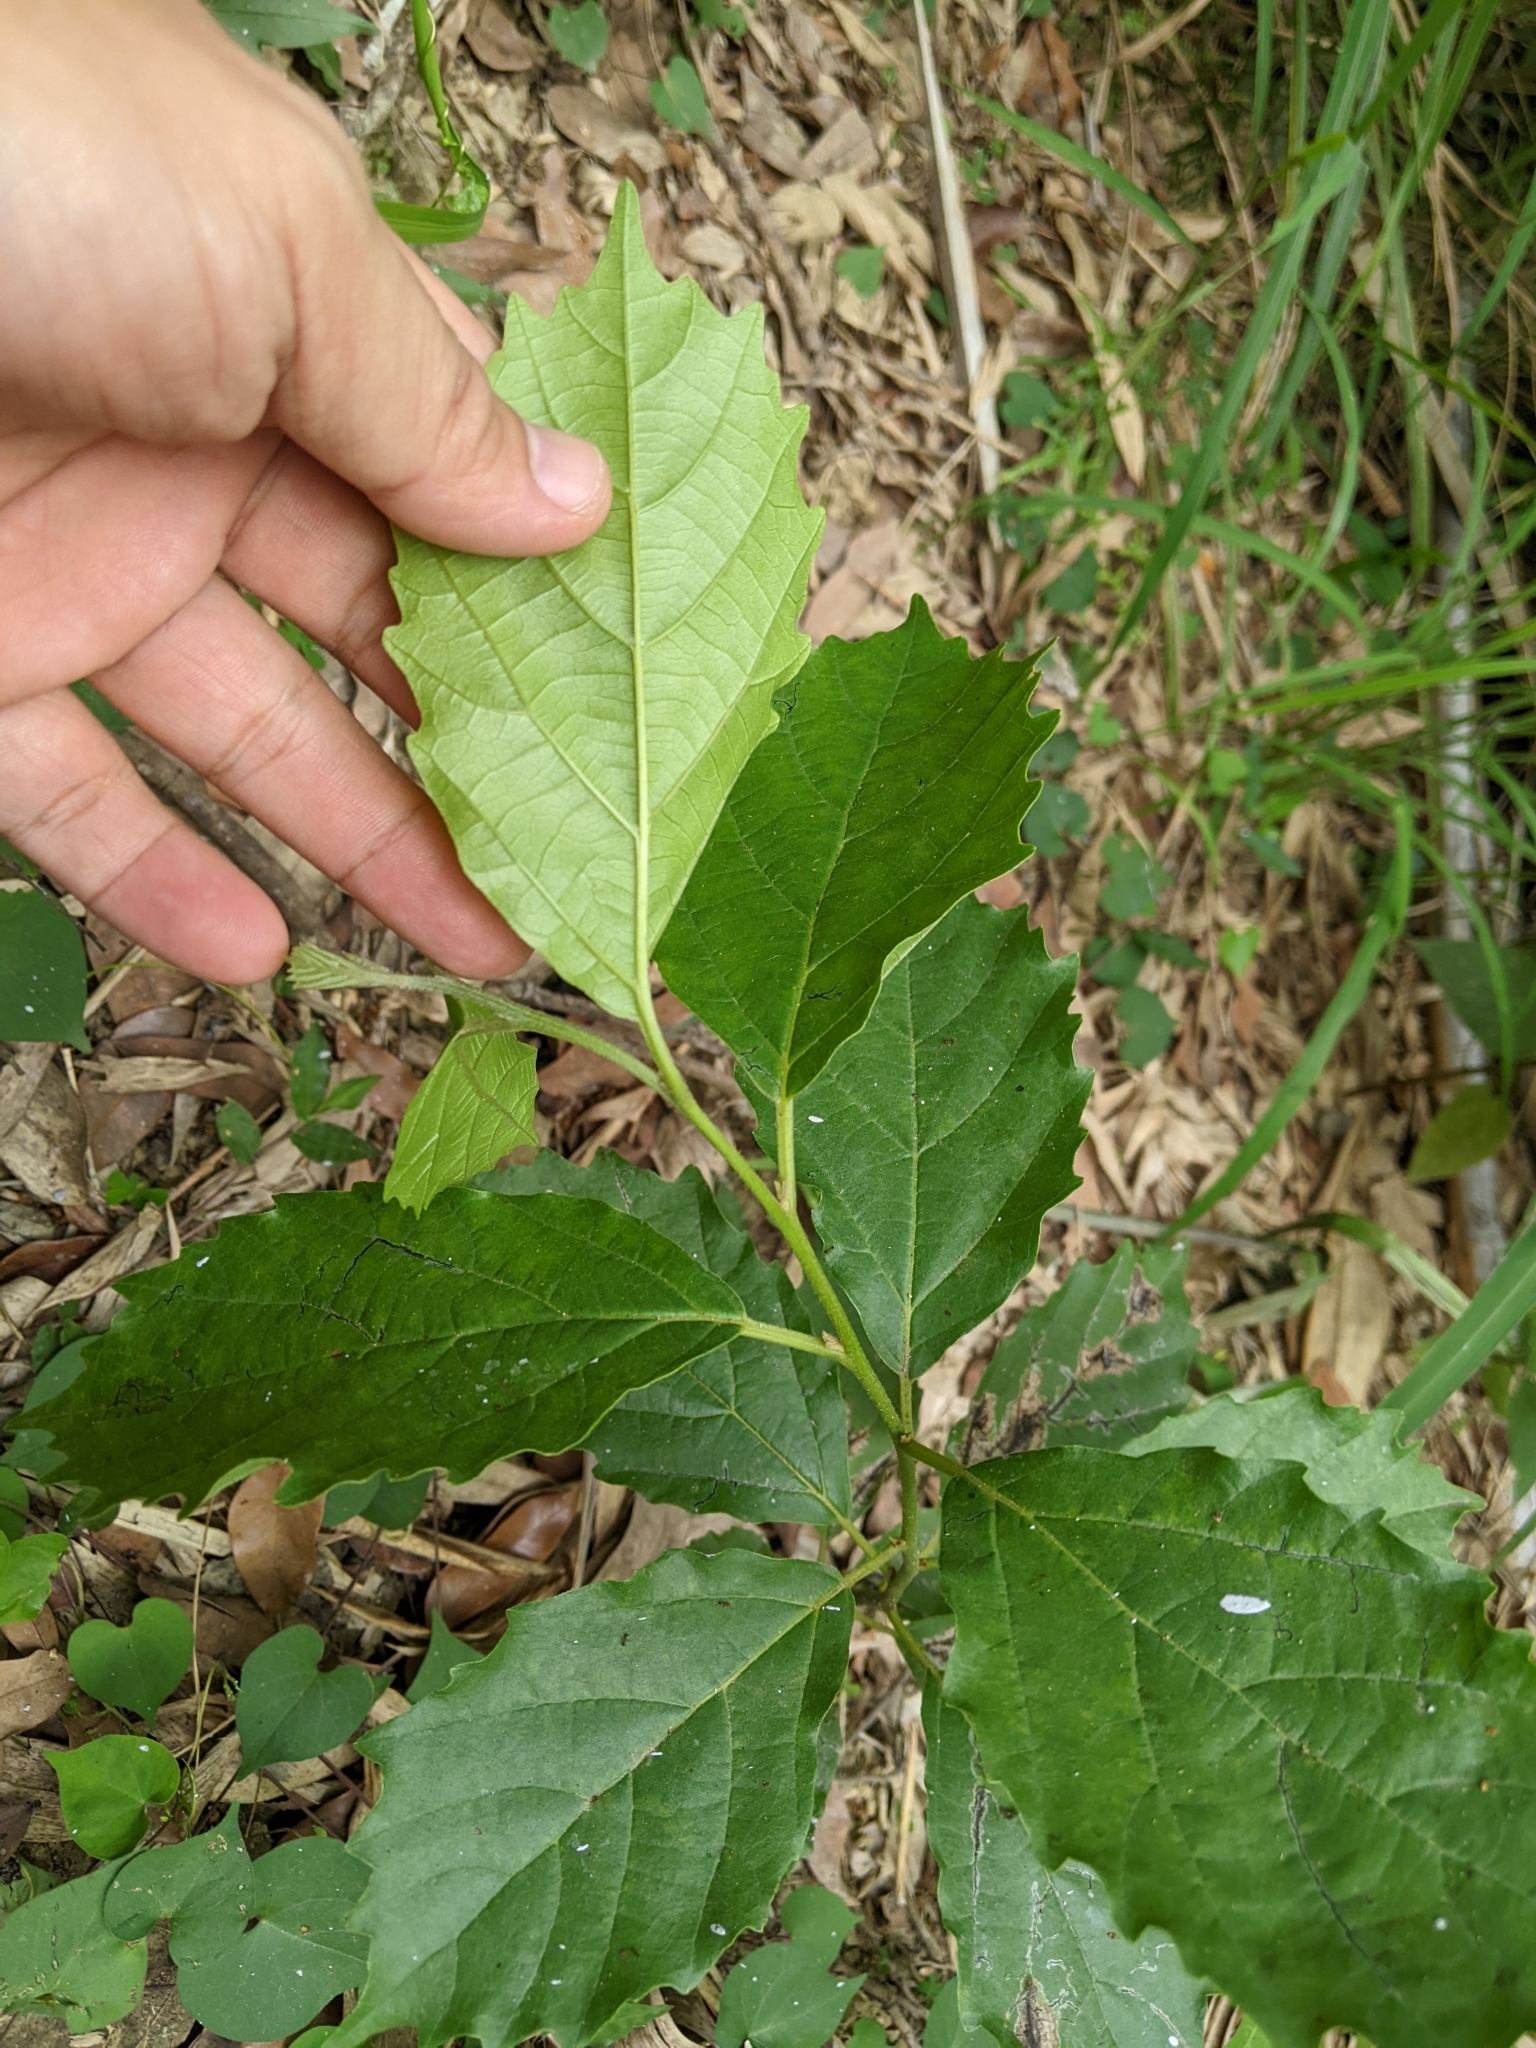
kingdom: Plantae
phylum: Tracheophyta
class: Magnoliopsida
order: Boraginales
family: Cordiaceae
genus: Cordia
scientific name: Cordia dichotoma
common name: Fragrant manjack
